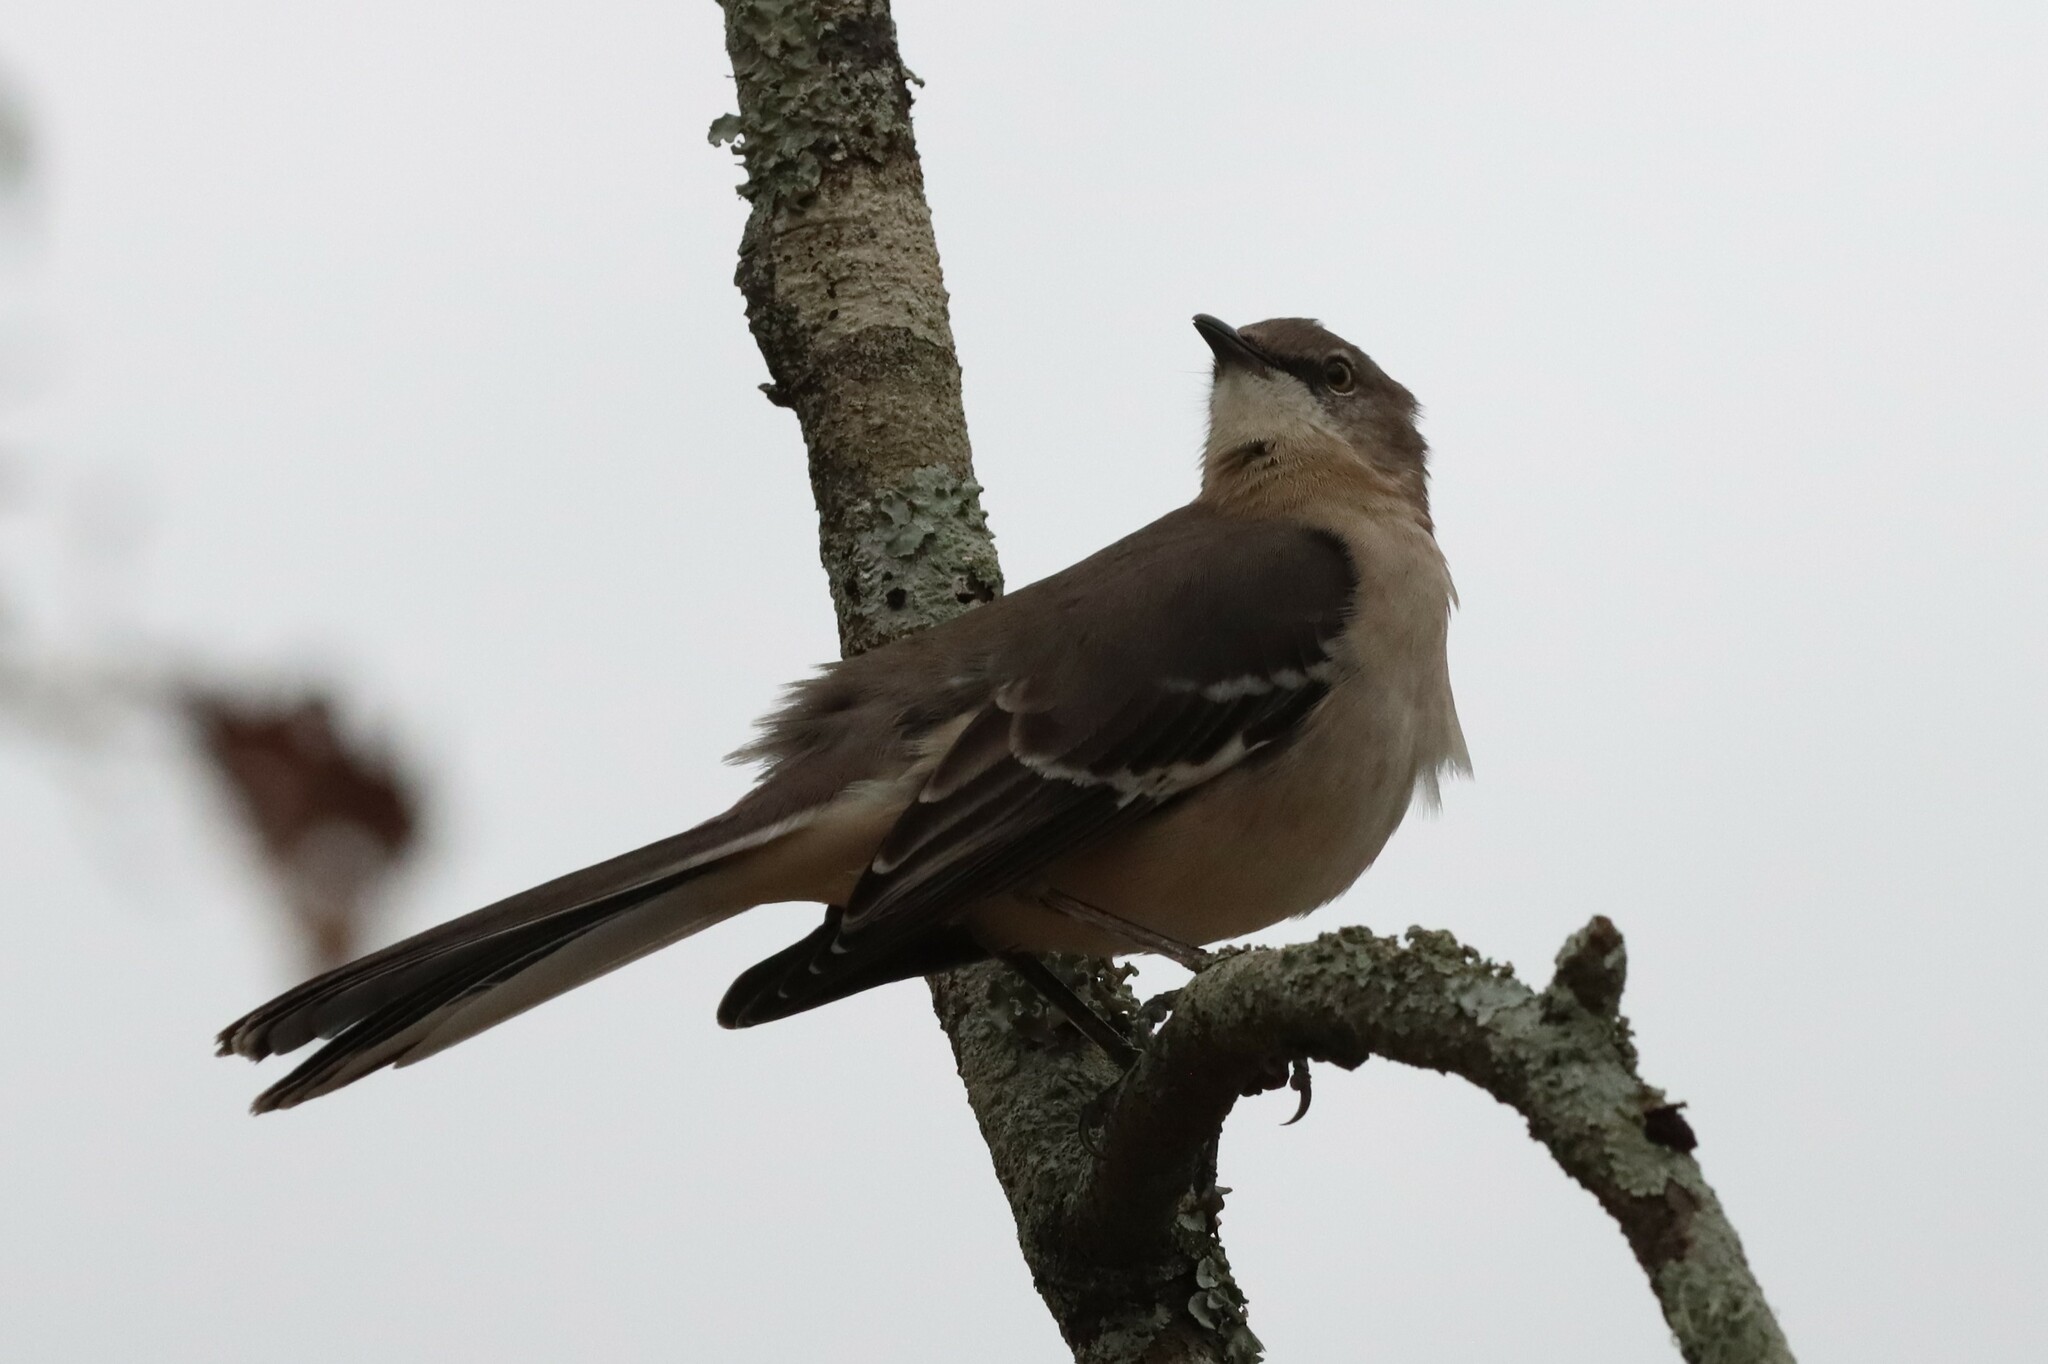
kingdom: Animalia
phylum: Chordata
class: Aves
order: Passeriformes
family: Mimidae
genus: Mimus
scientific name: Mimus polyglottos
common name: Northern mockingbird
